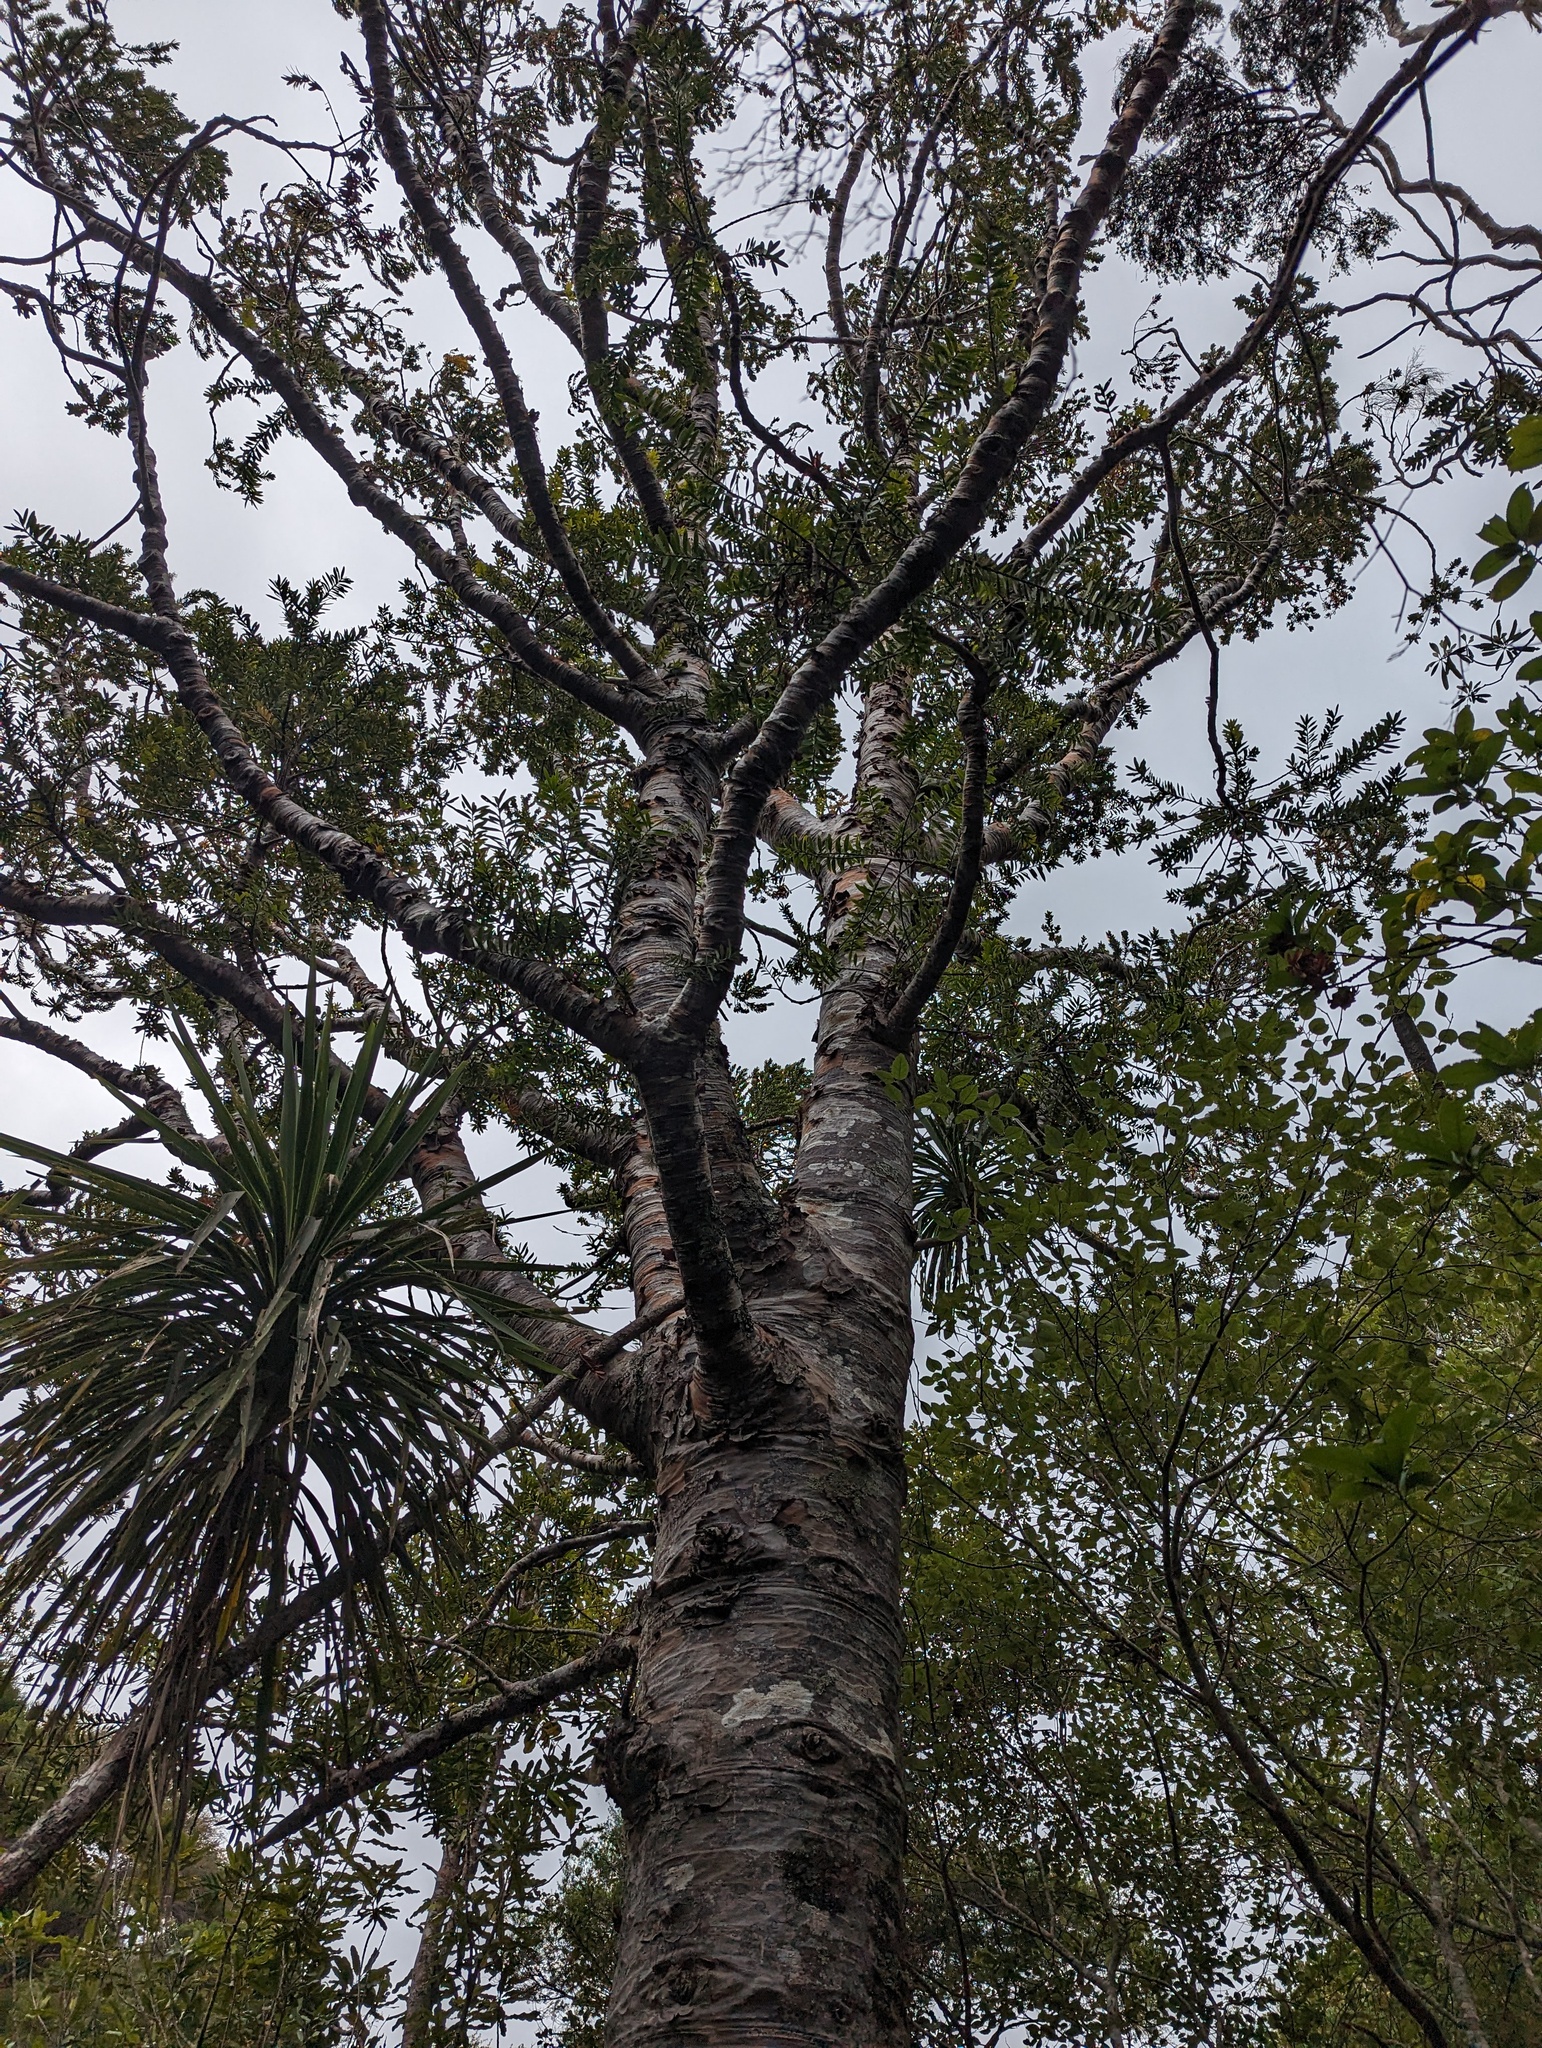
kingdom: Plantae
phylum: Tracheophyta
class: Pinopsida
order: Pinales
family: Araucariaceae
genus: Agathis
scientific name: Agathis australis
